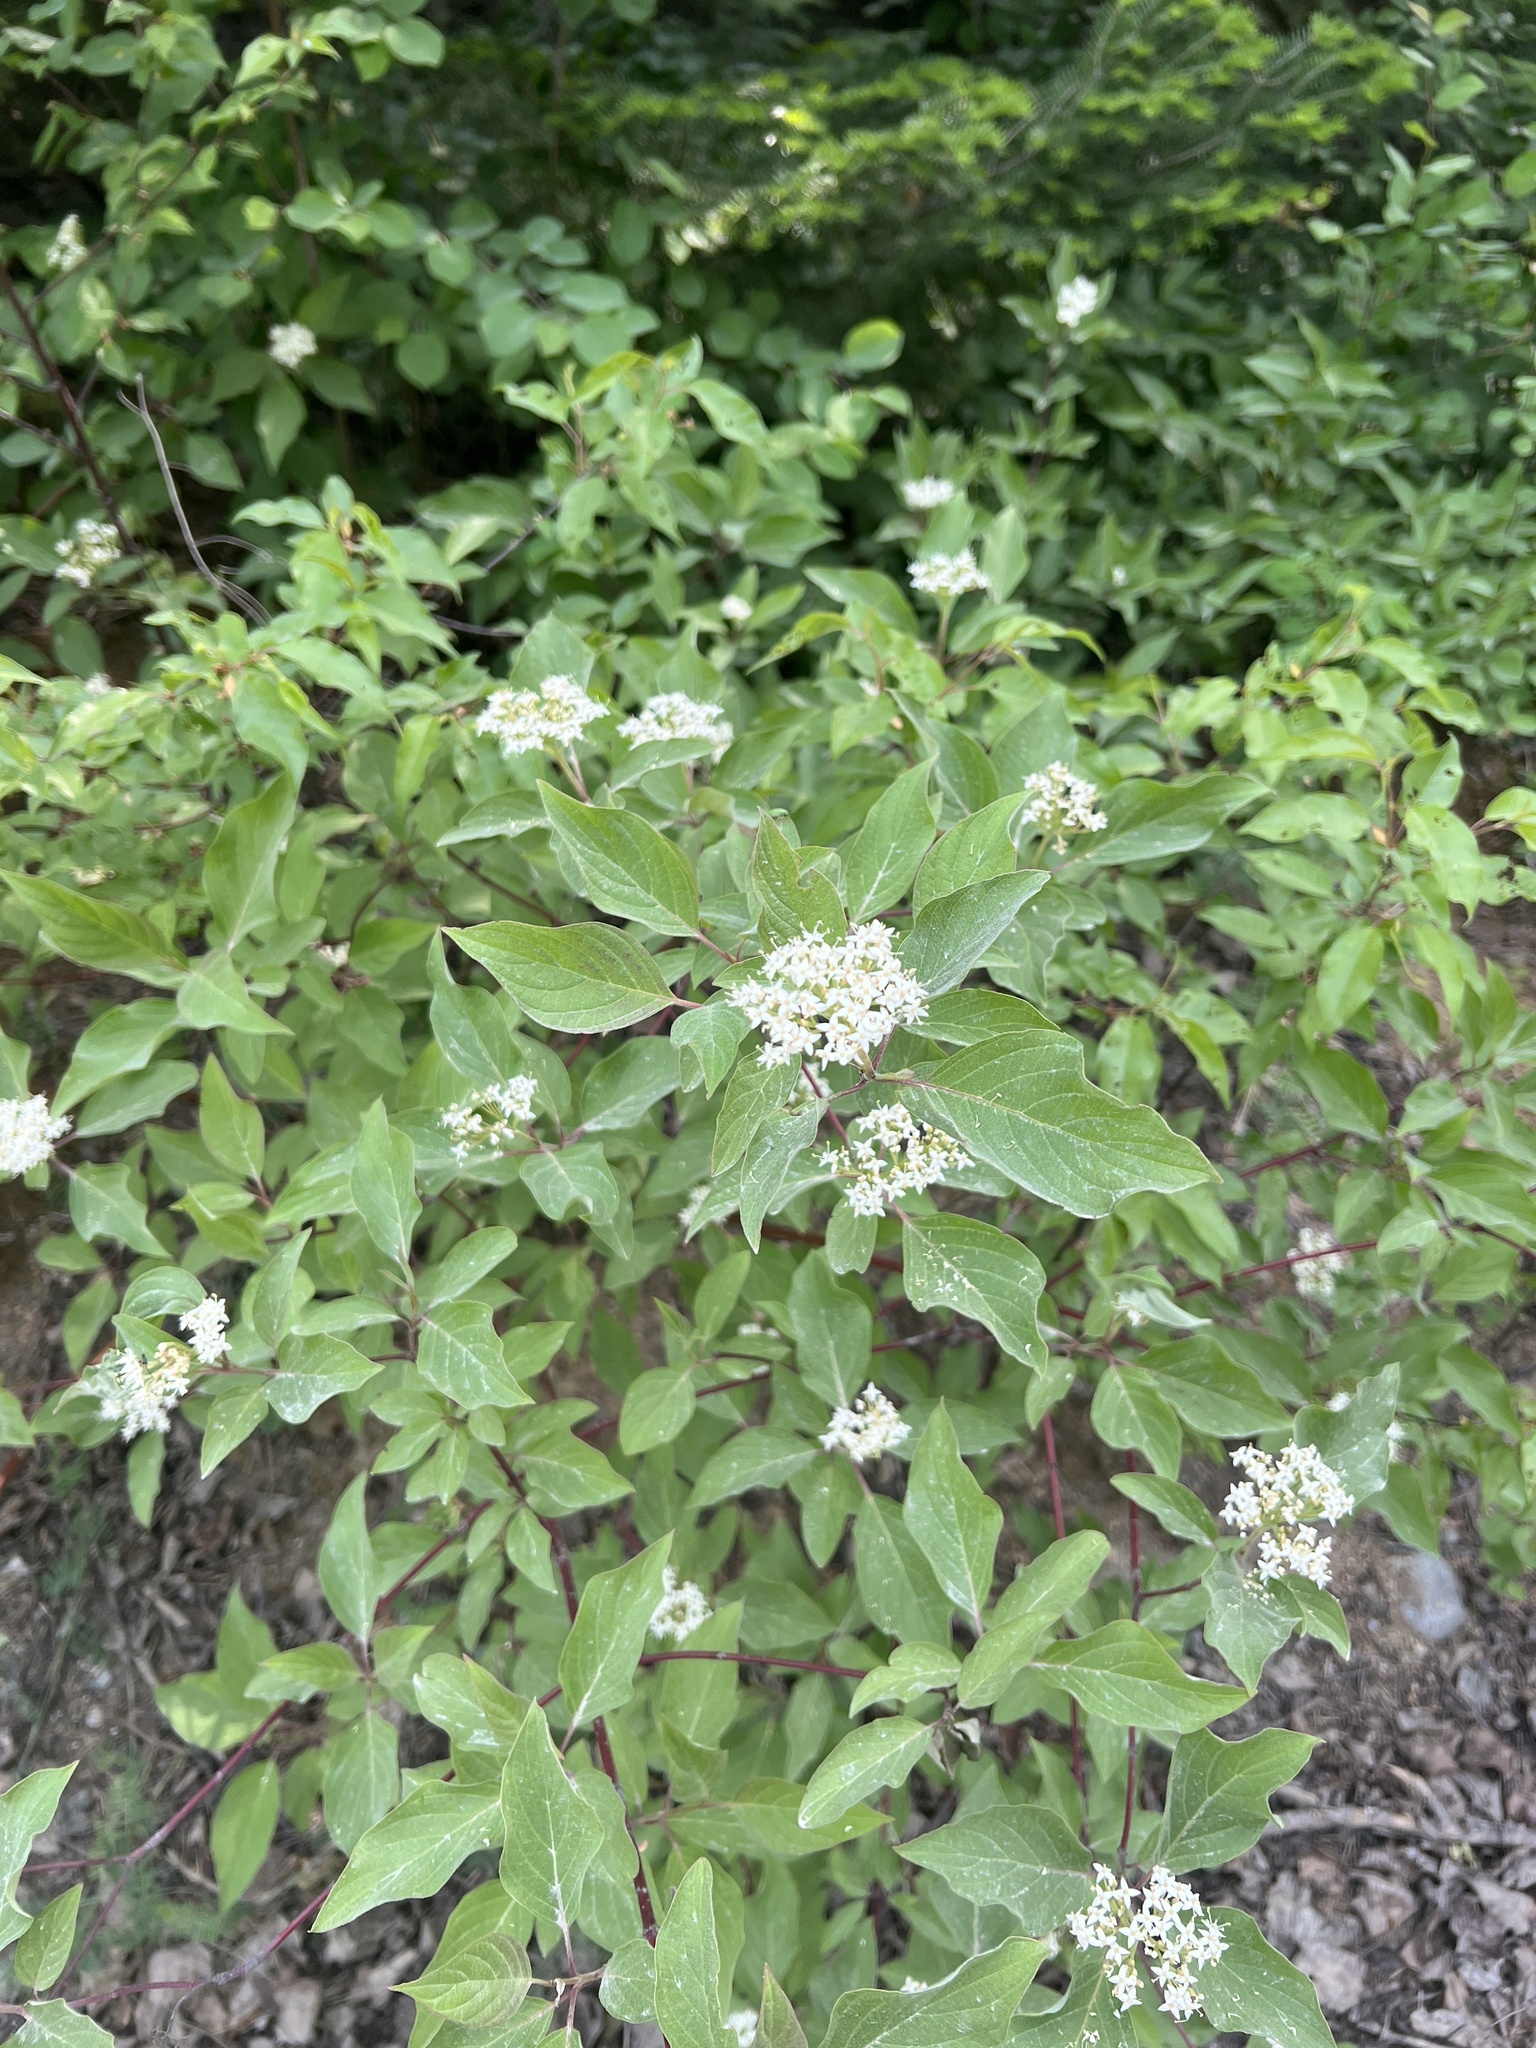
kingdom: Plantae
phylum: Tracheophyta
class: Magnoliopsida
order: Cornales
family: Cornaceae
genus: Cornus
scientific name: Cornus sericea
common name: Red-osier dogwood
